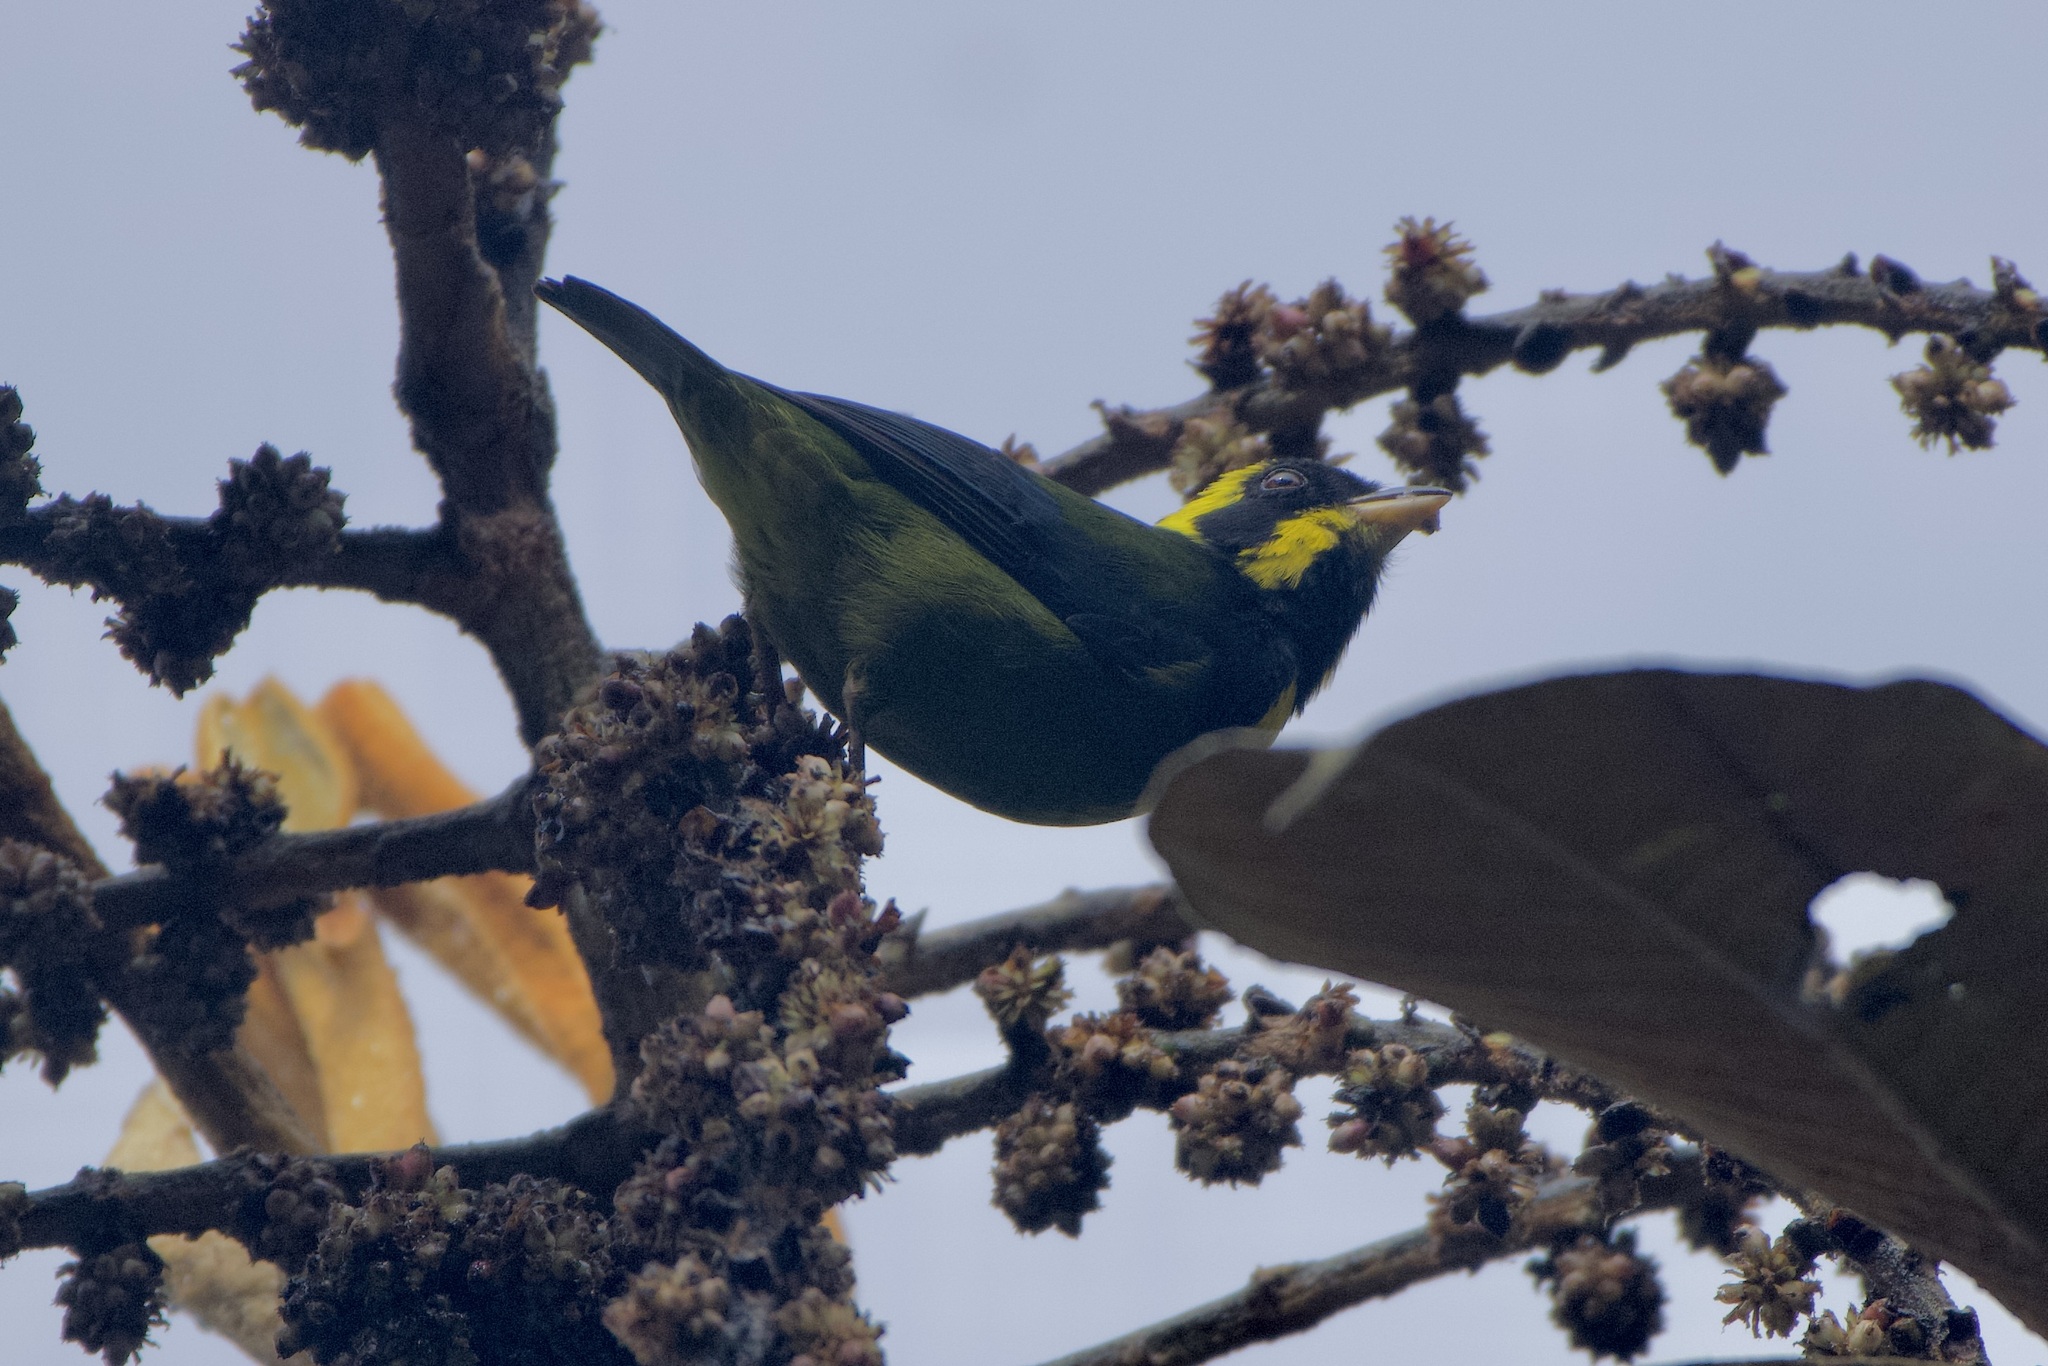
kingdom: Animalia
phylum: Chordata
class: Aves
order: Passeriformes
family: Thraupidae
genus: Bangsia
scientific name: Bangsia aureocincta
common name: Gold-ringed tanager
